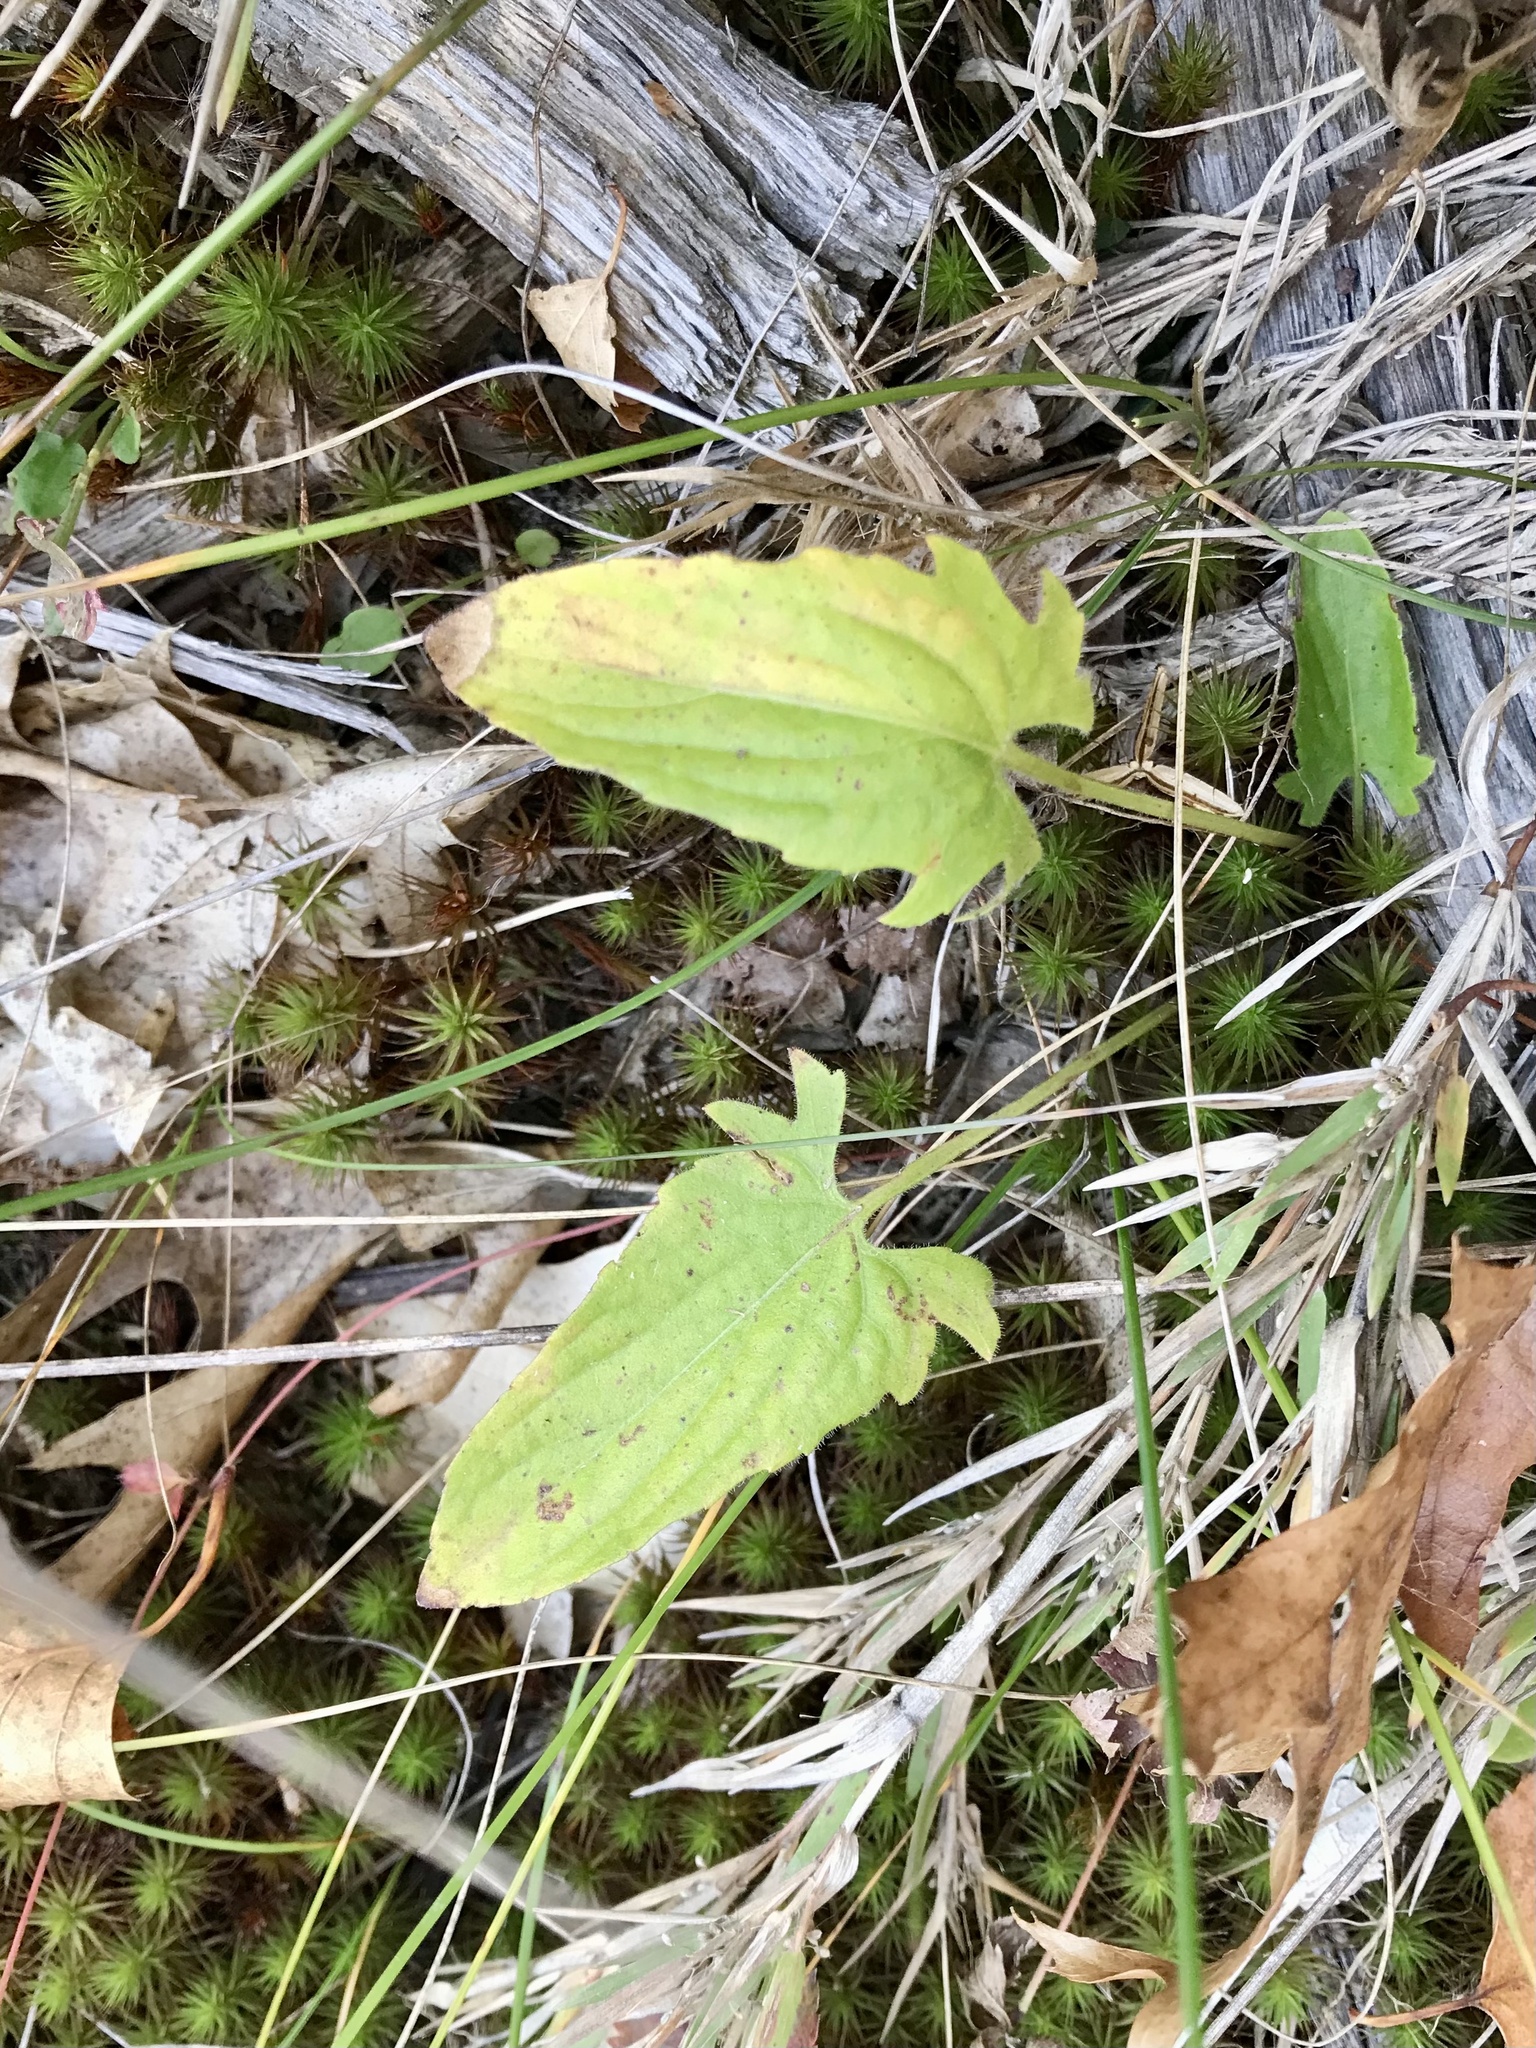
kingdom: Plantae
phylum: Tracheophyta
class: Magnoliopsida
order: Malpighiales
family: Violaceae
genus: Viola
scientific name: Viola sagittata
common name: Arrowhead violet
